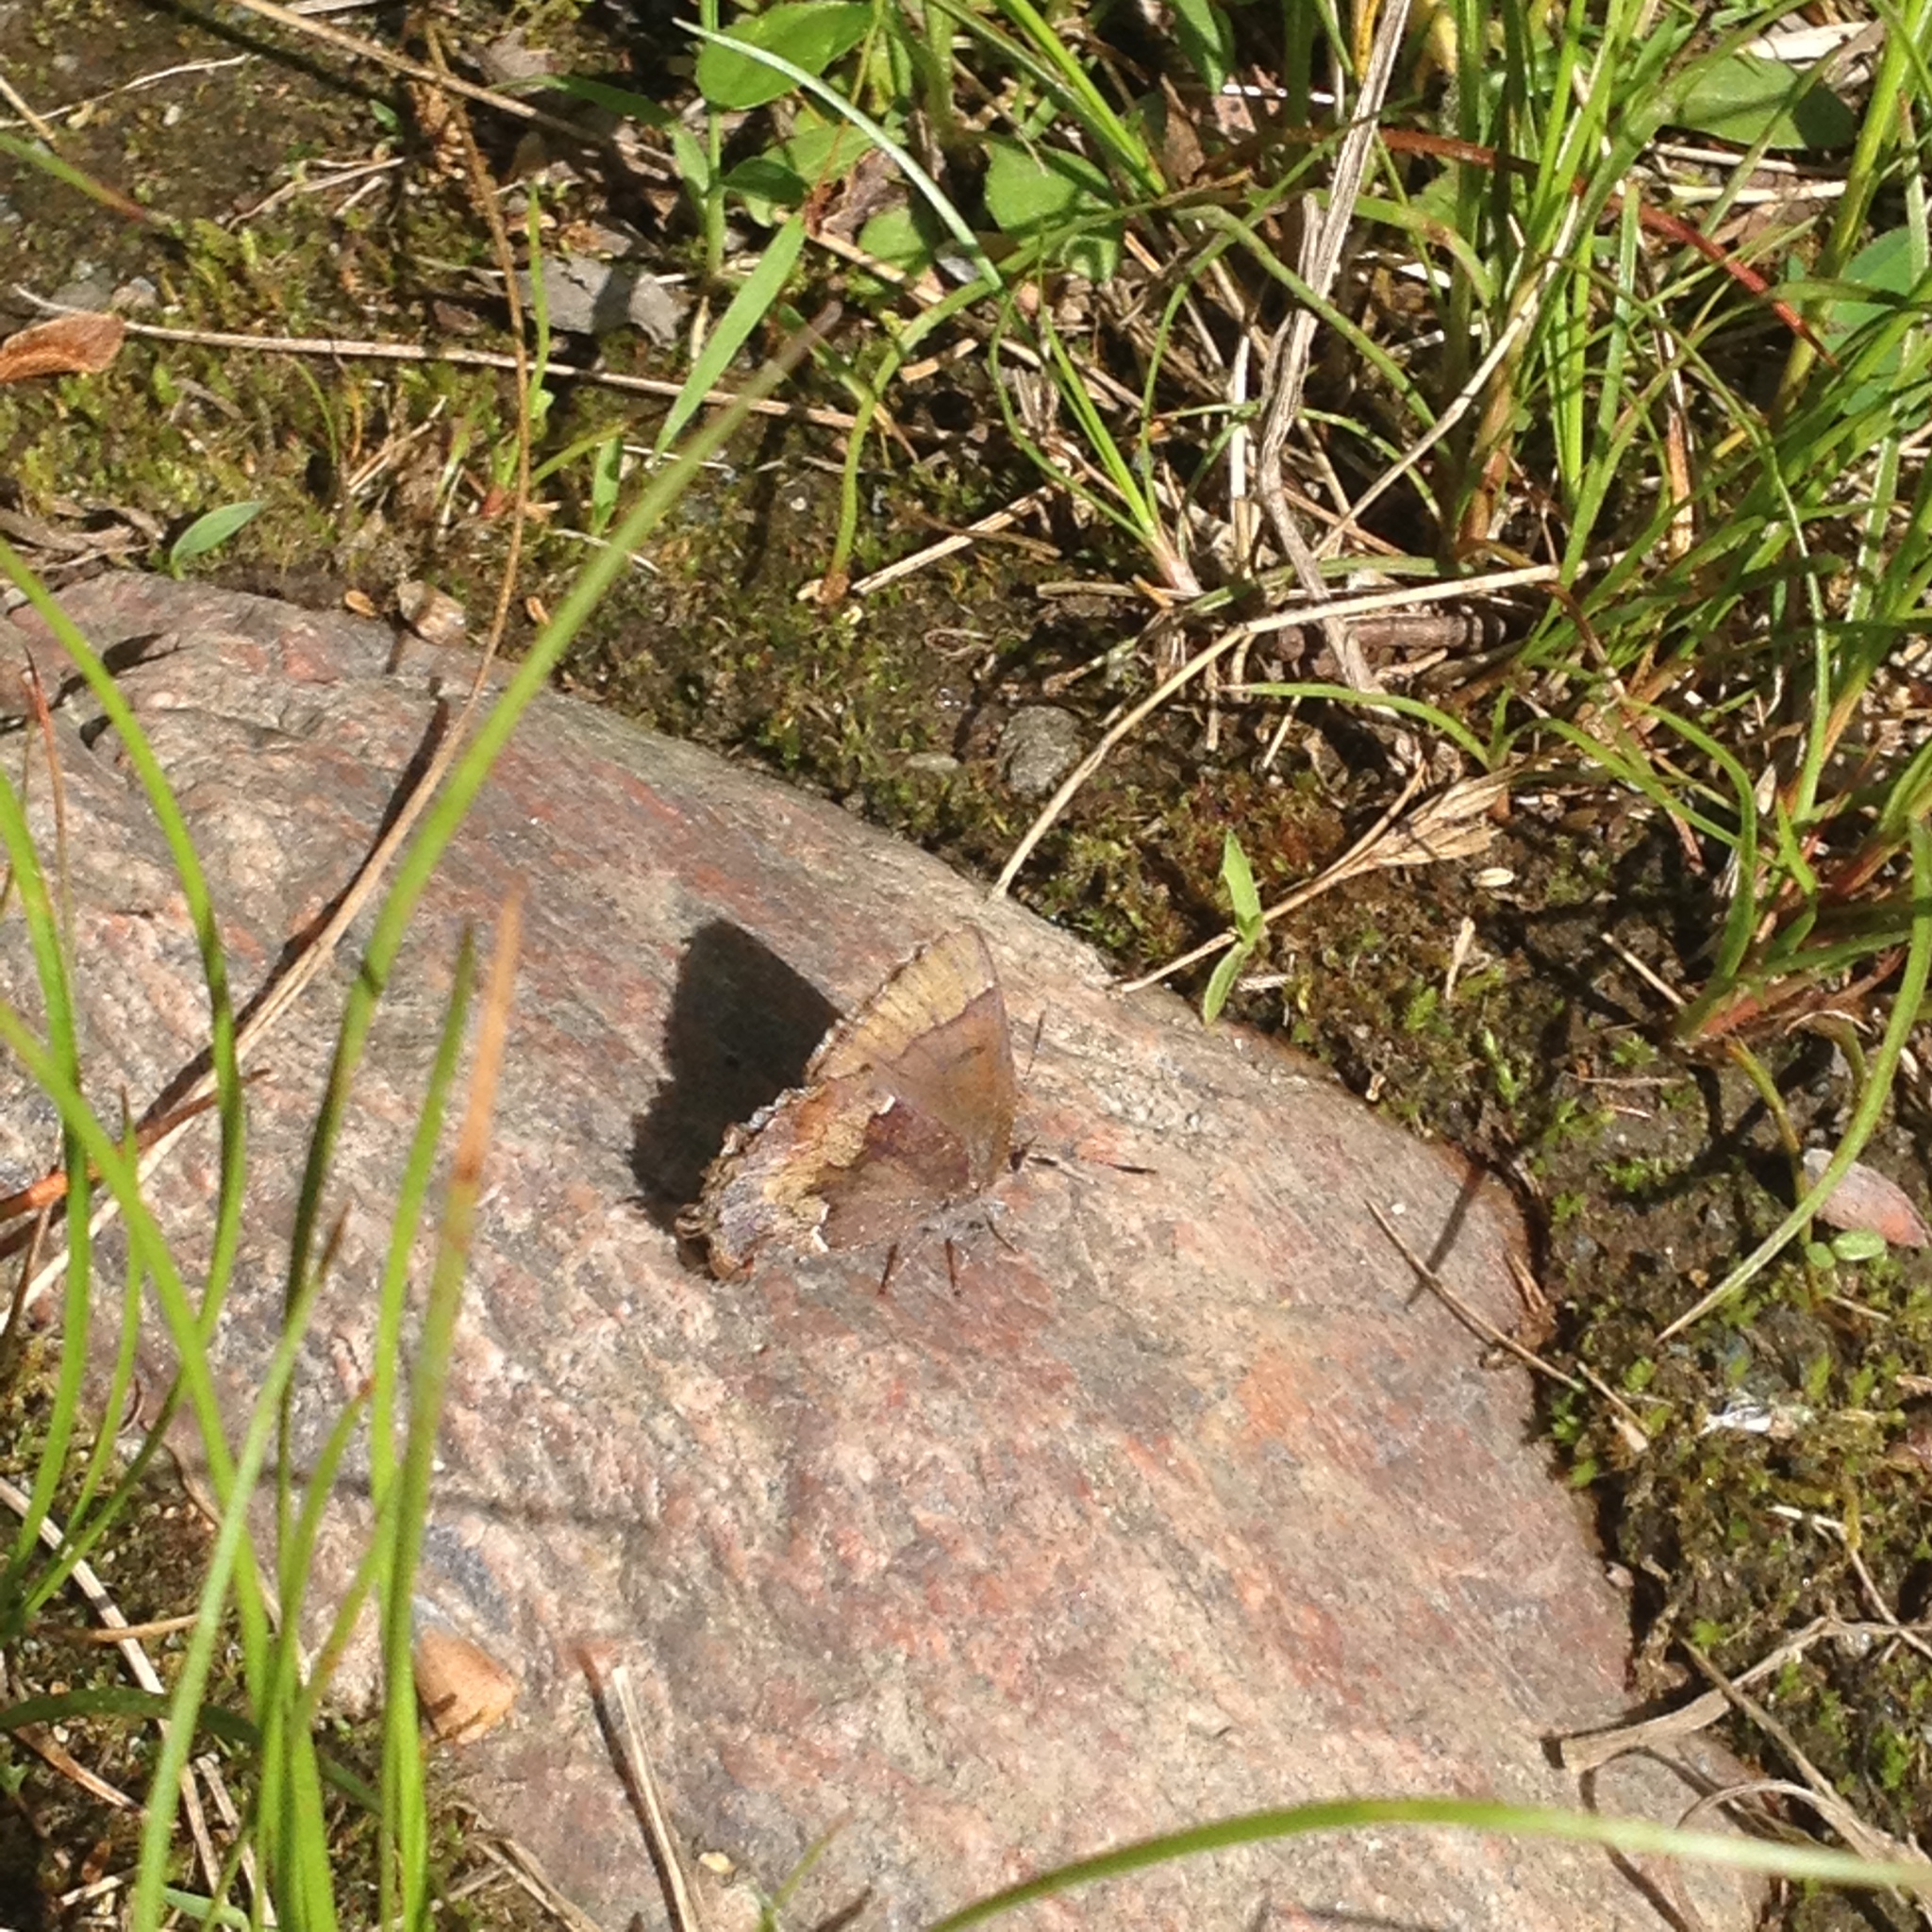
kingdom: Animalia
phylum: Arthropoda
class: Insecta
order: Lepidoptera
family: Lycaenidae
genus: Incisalia
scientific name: Incisalia henrici
